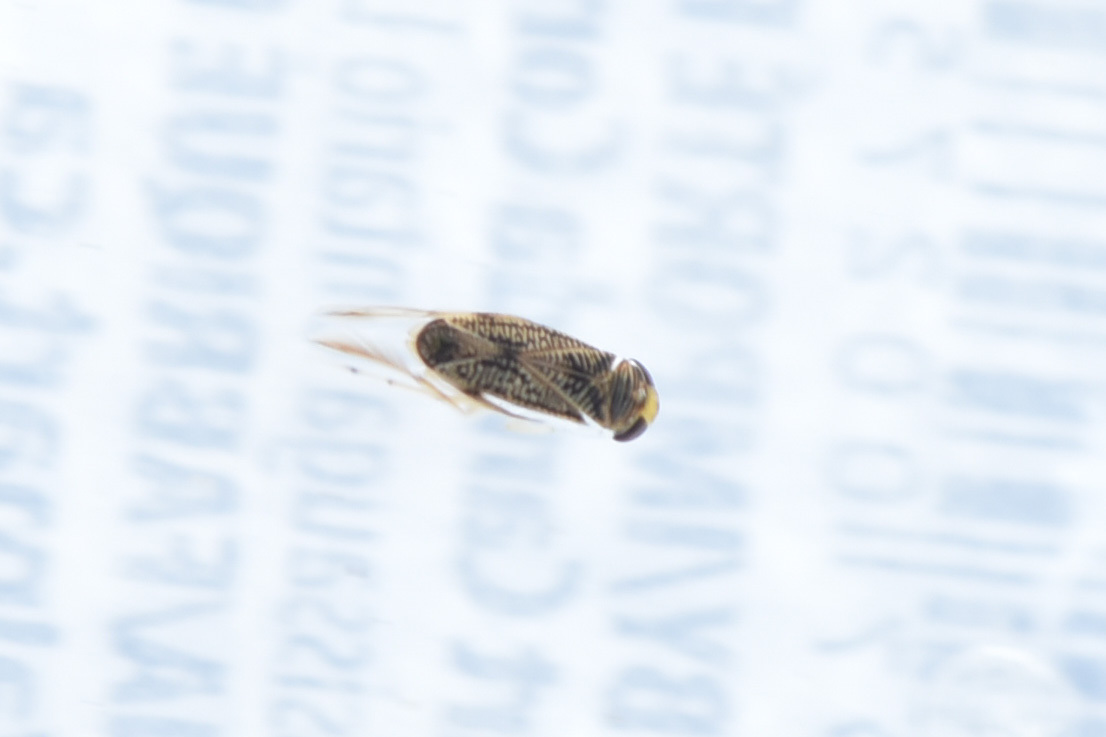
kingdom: Animalia
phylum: Arthropoda
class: Insecta
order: Hemiptera
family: Corixidae
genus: Sigara
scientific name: Sigara
